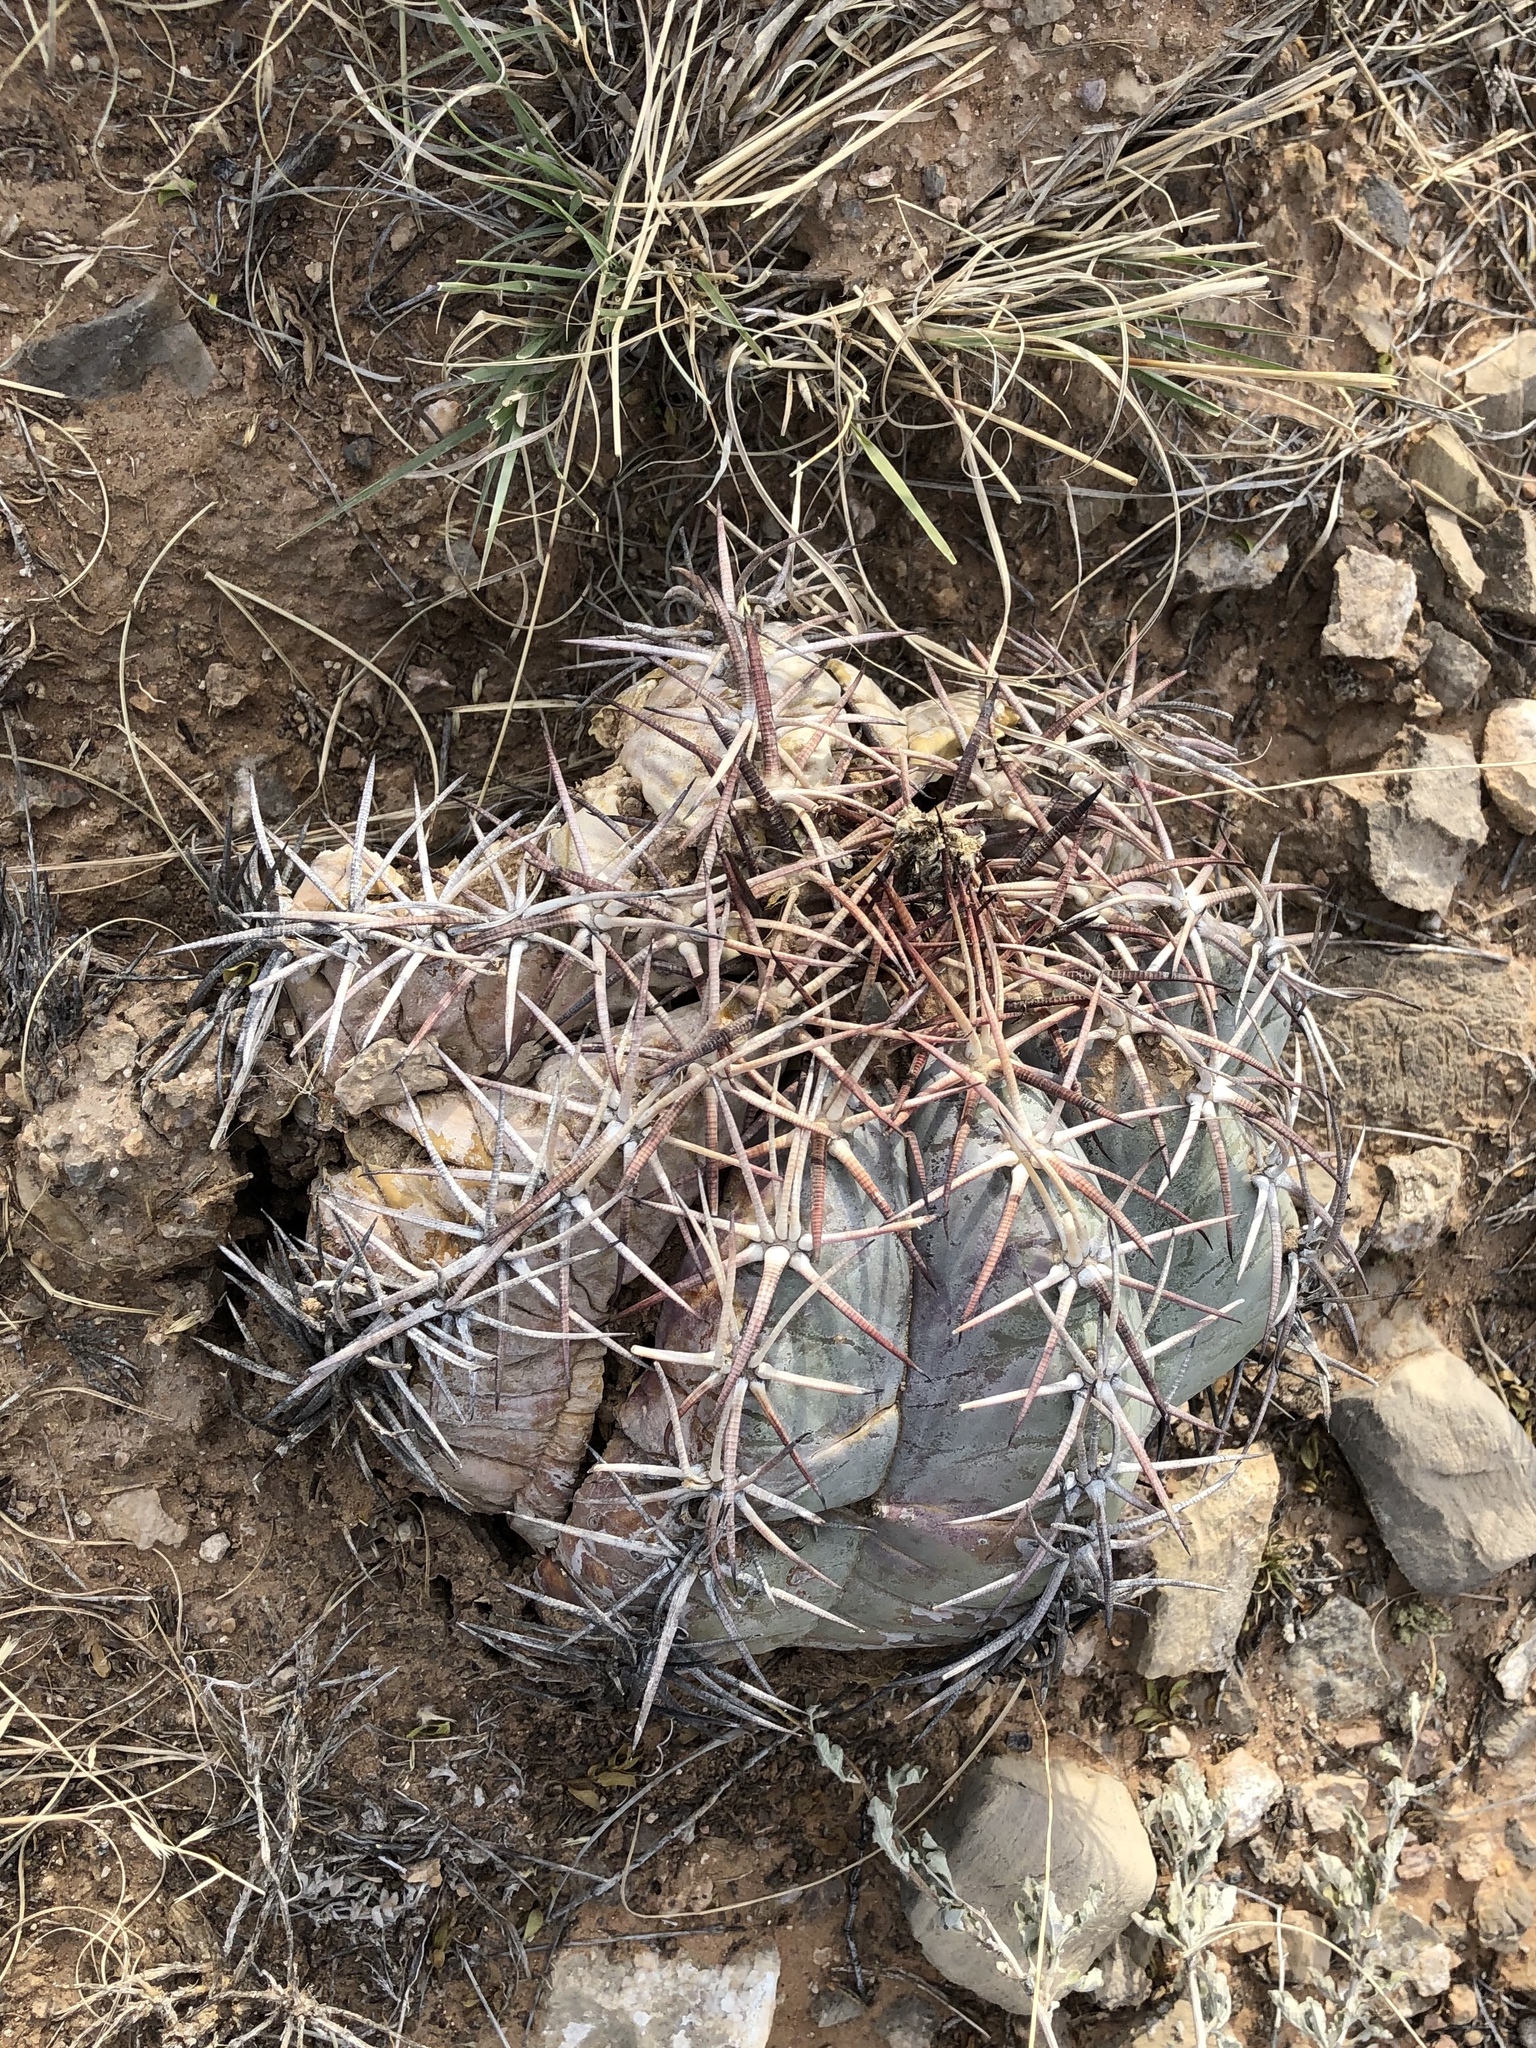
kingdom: Plantae
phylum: Tracheophyta
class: Magnoliopsida
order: Caryophyllales
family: Cactaceae
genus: Echinocactus
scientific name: Echinocactus horizonthalonius
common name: Devilshead
